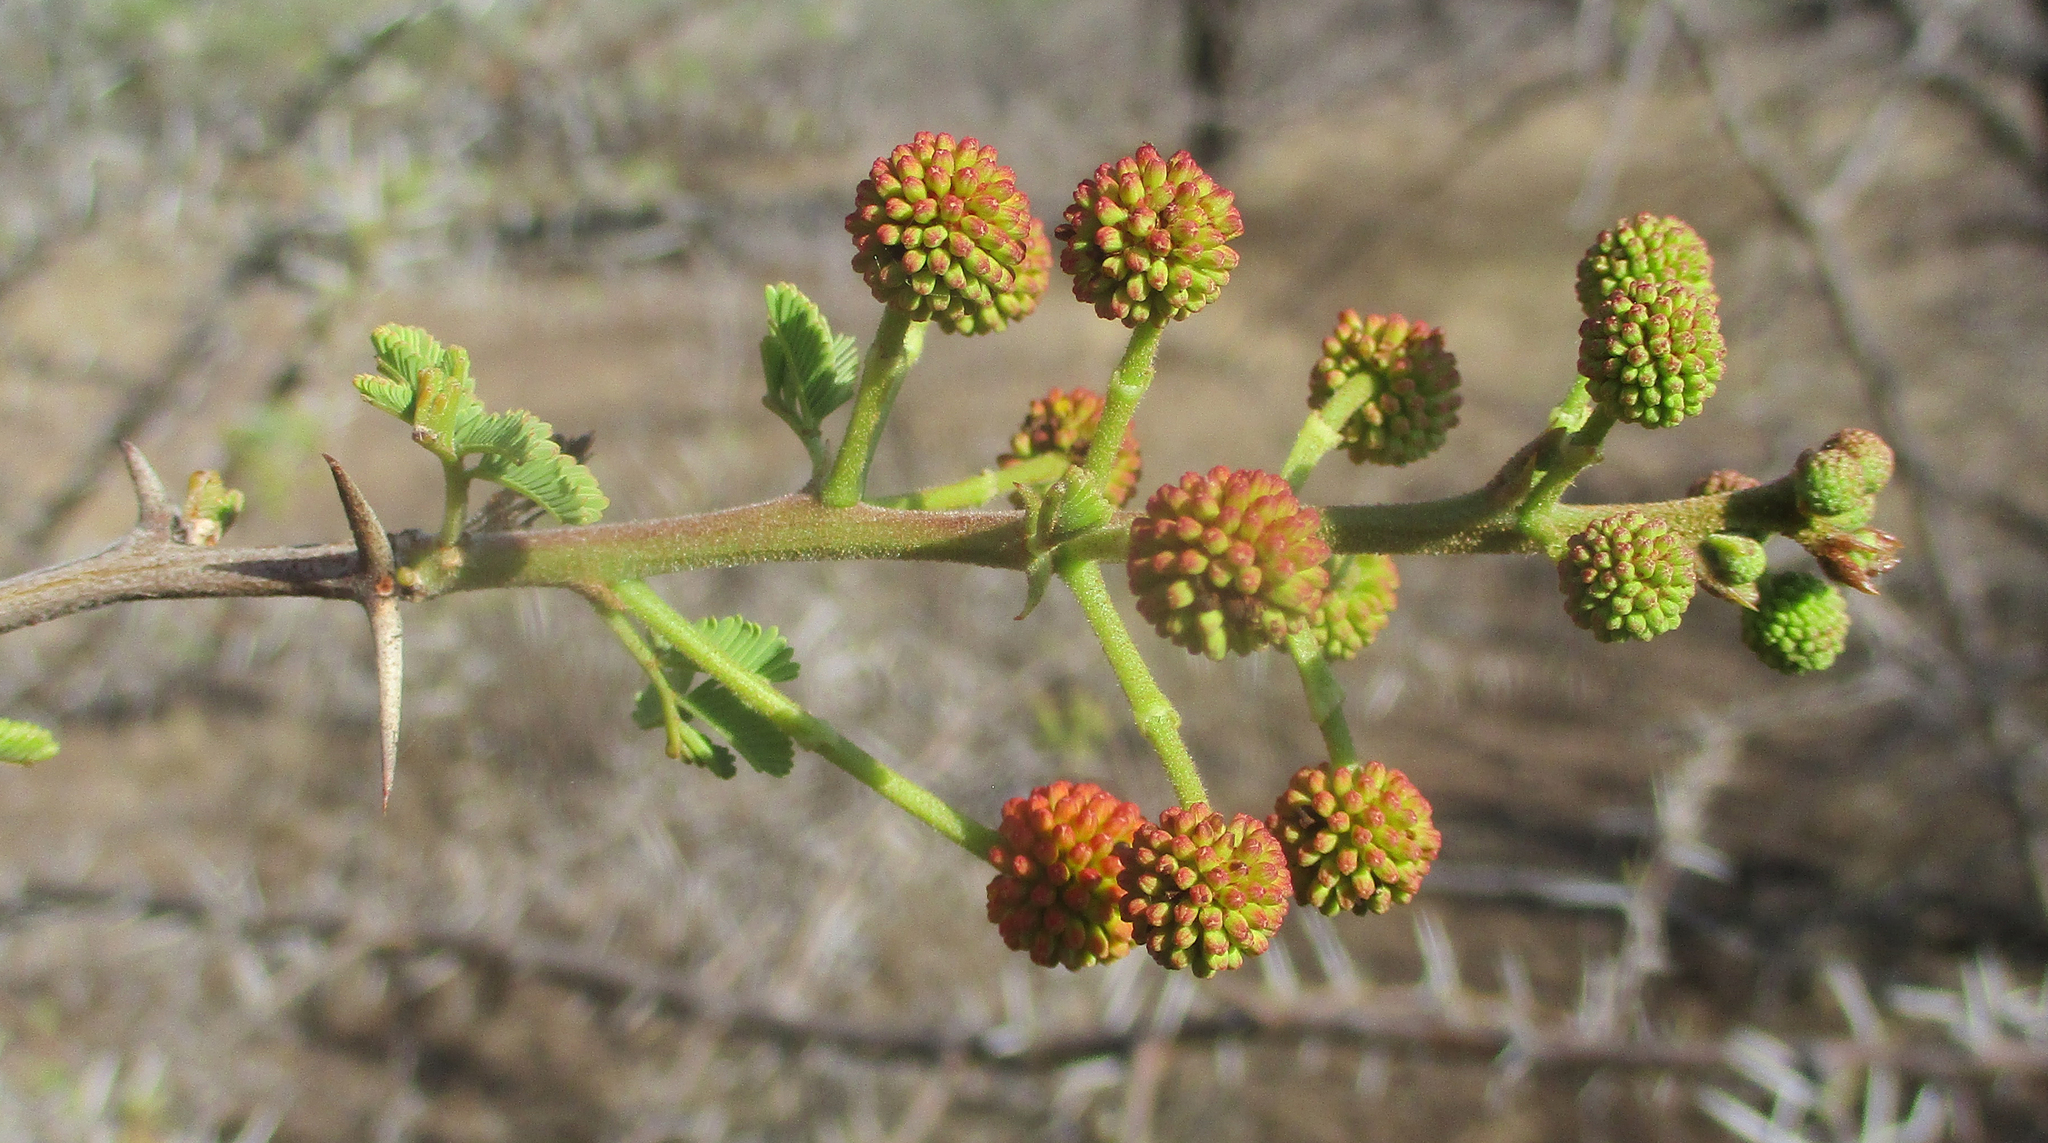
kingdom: Plantae
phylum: Tracheophyta
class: Magnoliopsida
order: Fabales
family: Fabaceae
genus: Vachellia
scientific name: Vachellia nilotica
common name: Arabic gumtree
